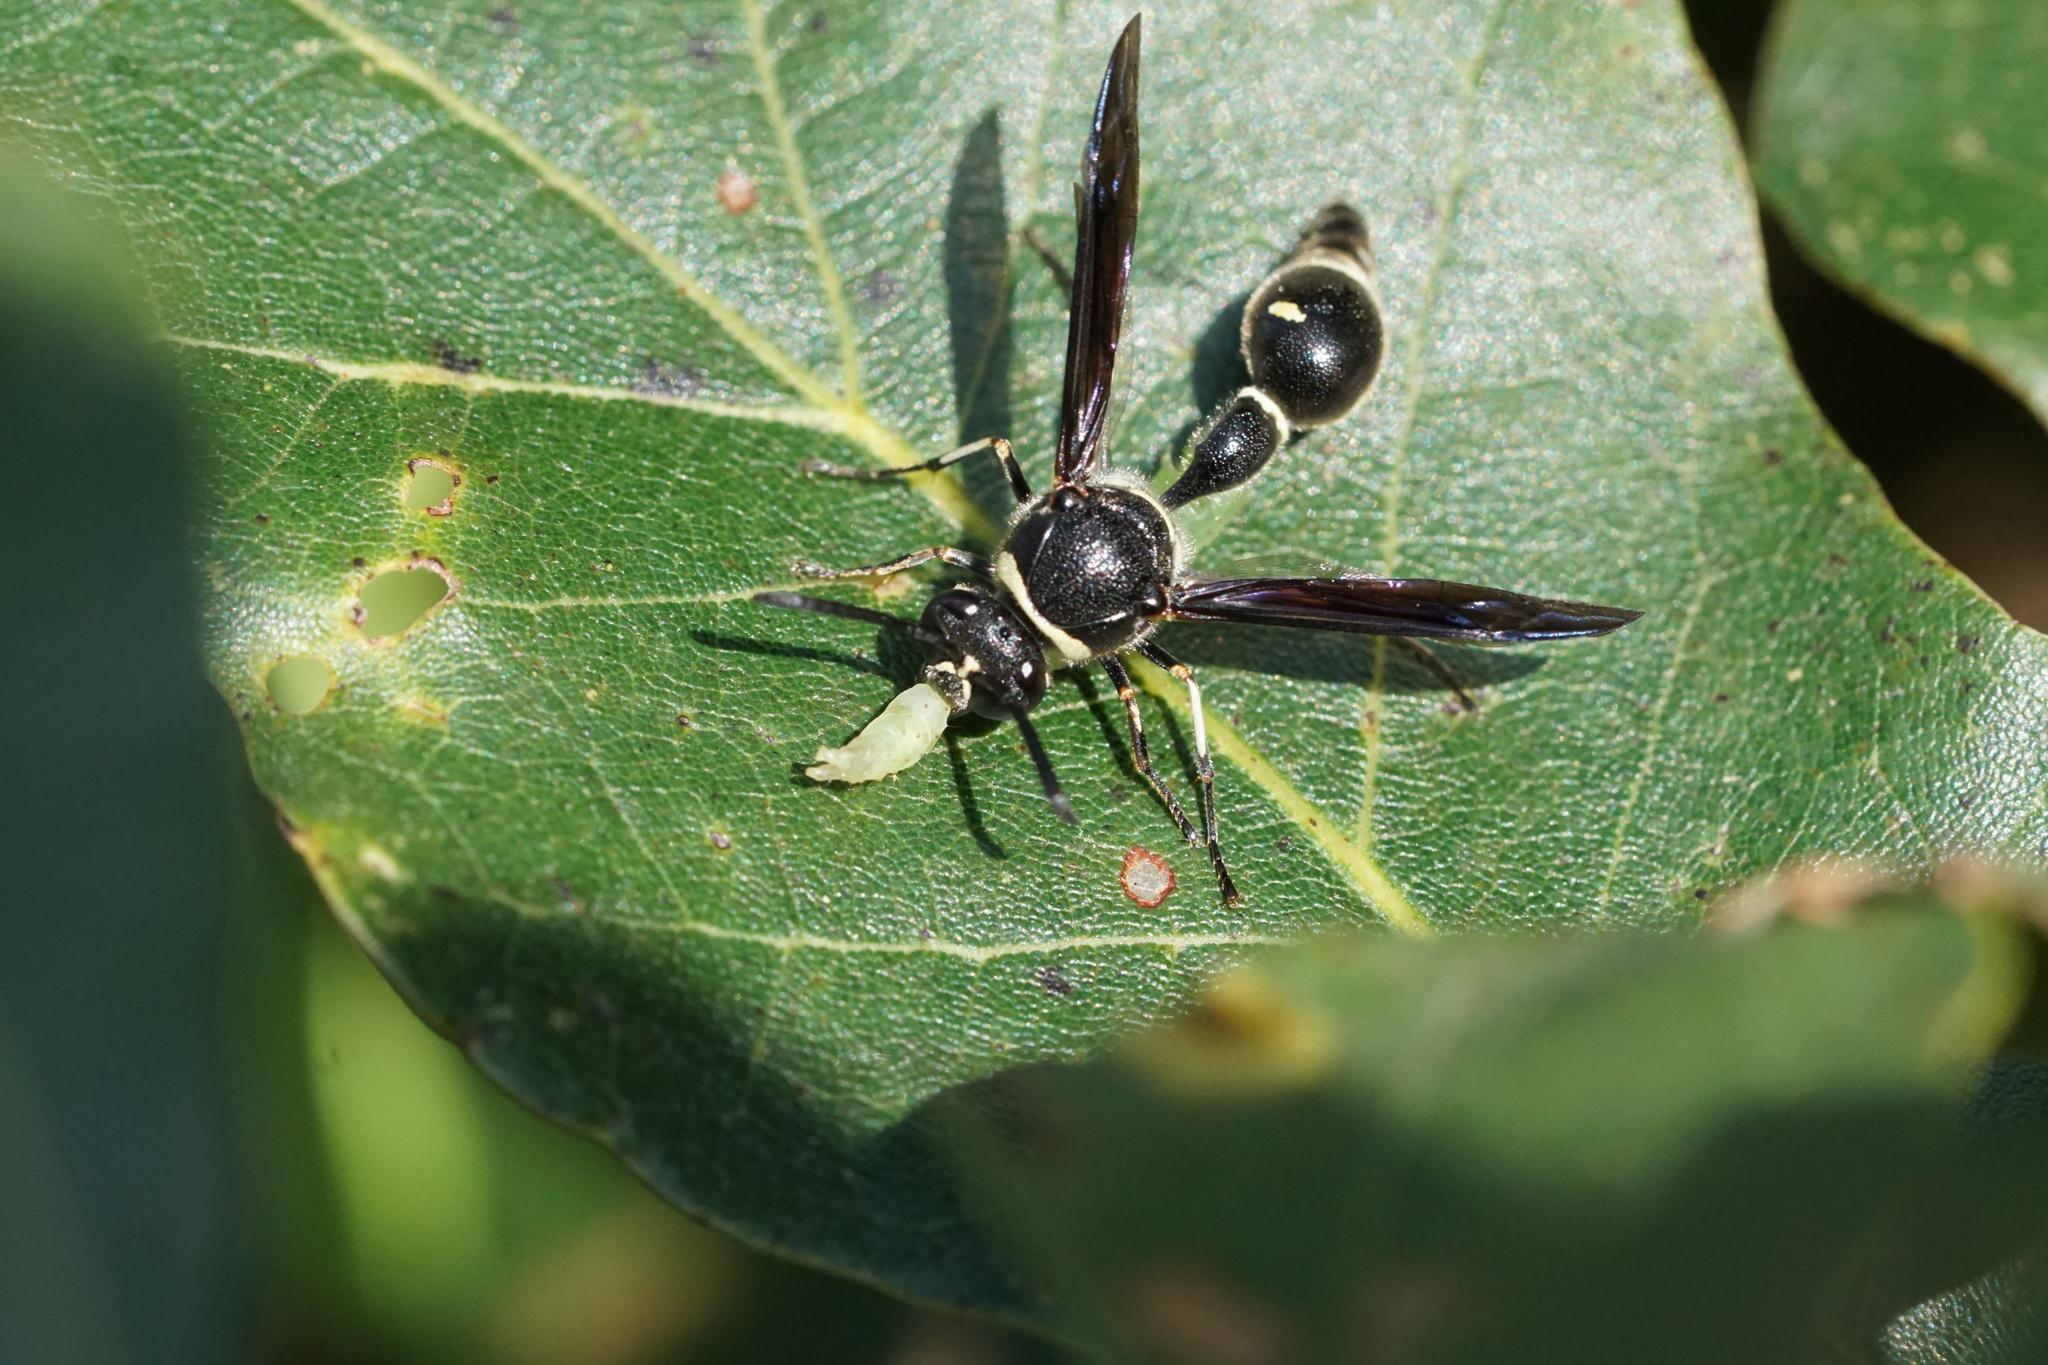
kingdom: Animalia
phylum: Arthropoda
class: Insecta
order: Hymenoptera
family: Vespidae
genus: Eumenes
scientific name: Eumenes fraternus
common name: Fraternal potter wasp
